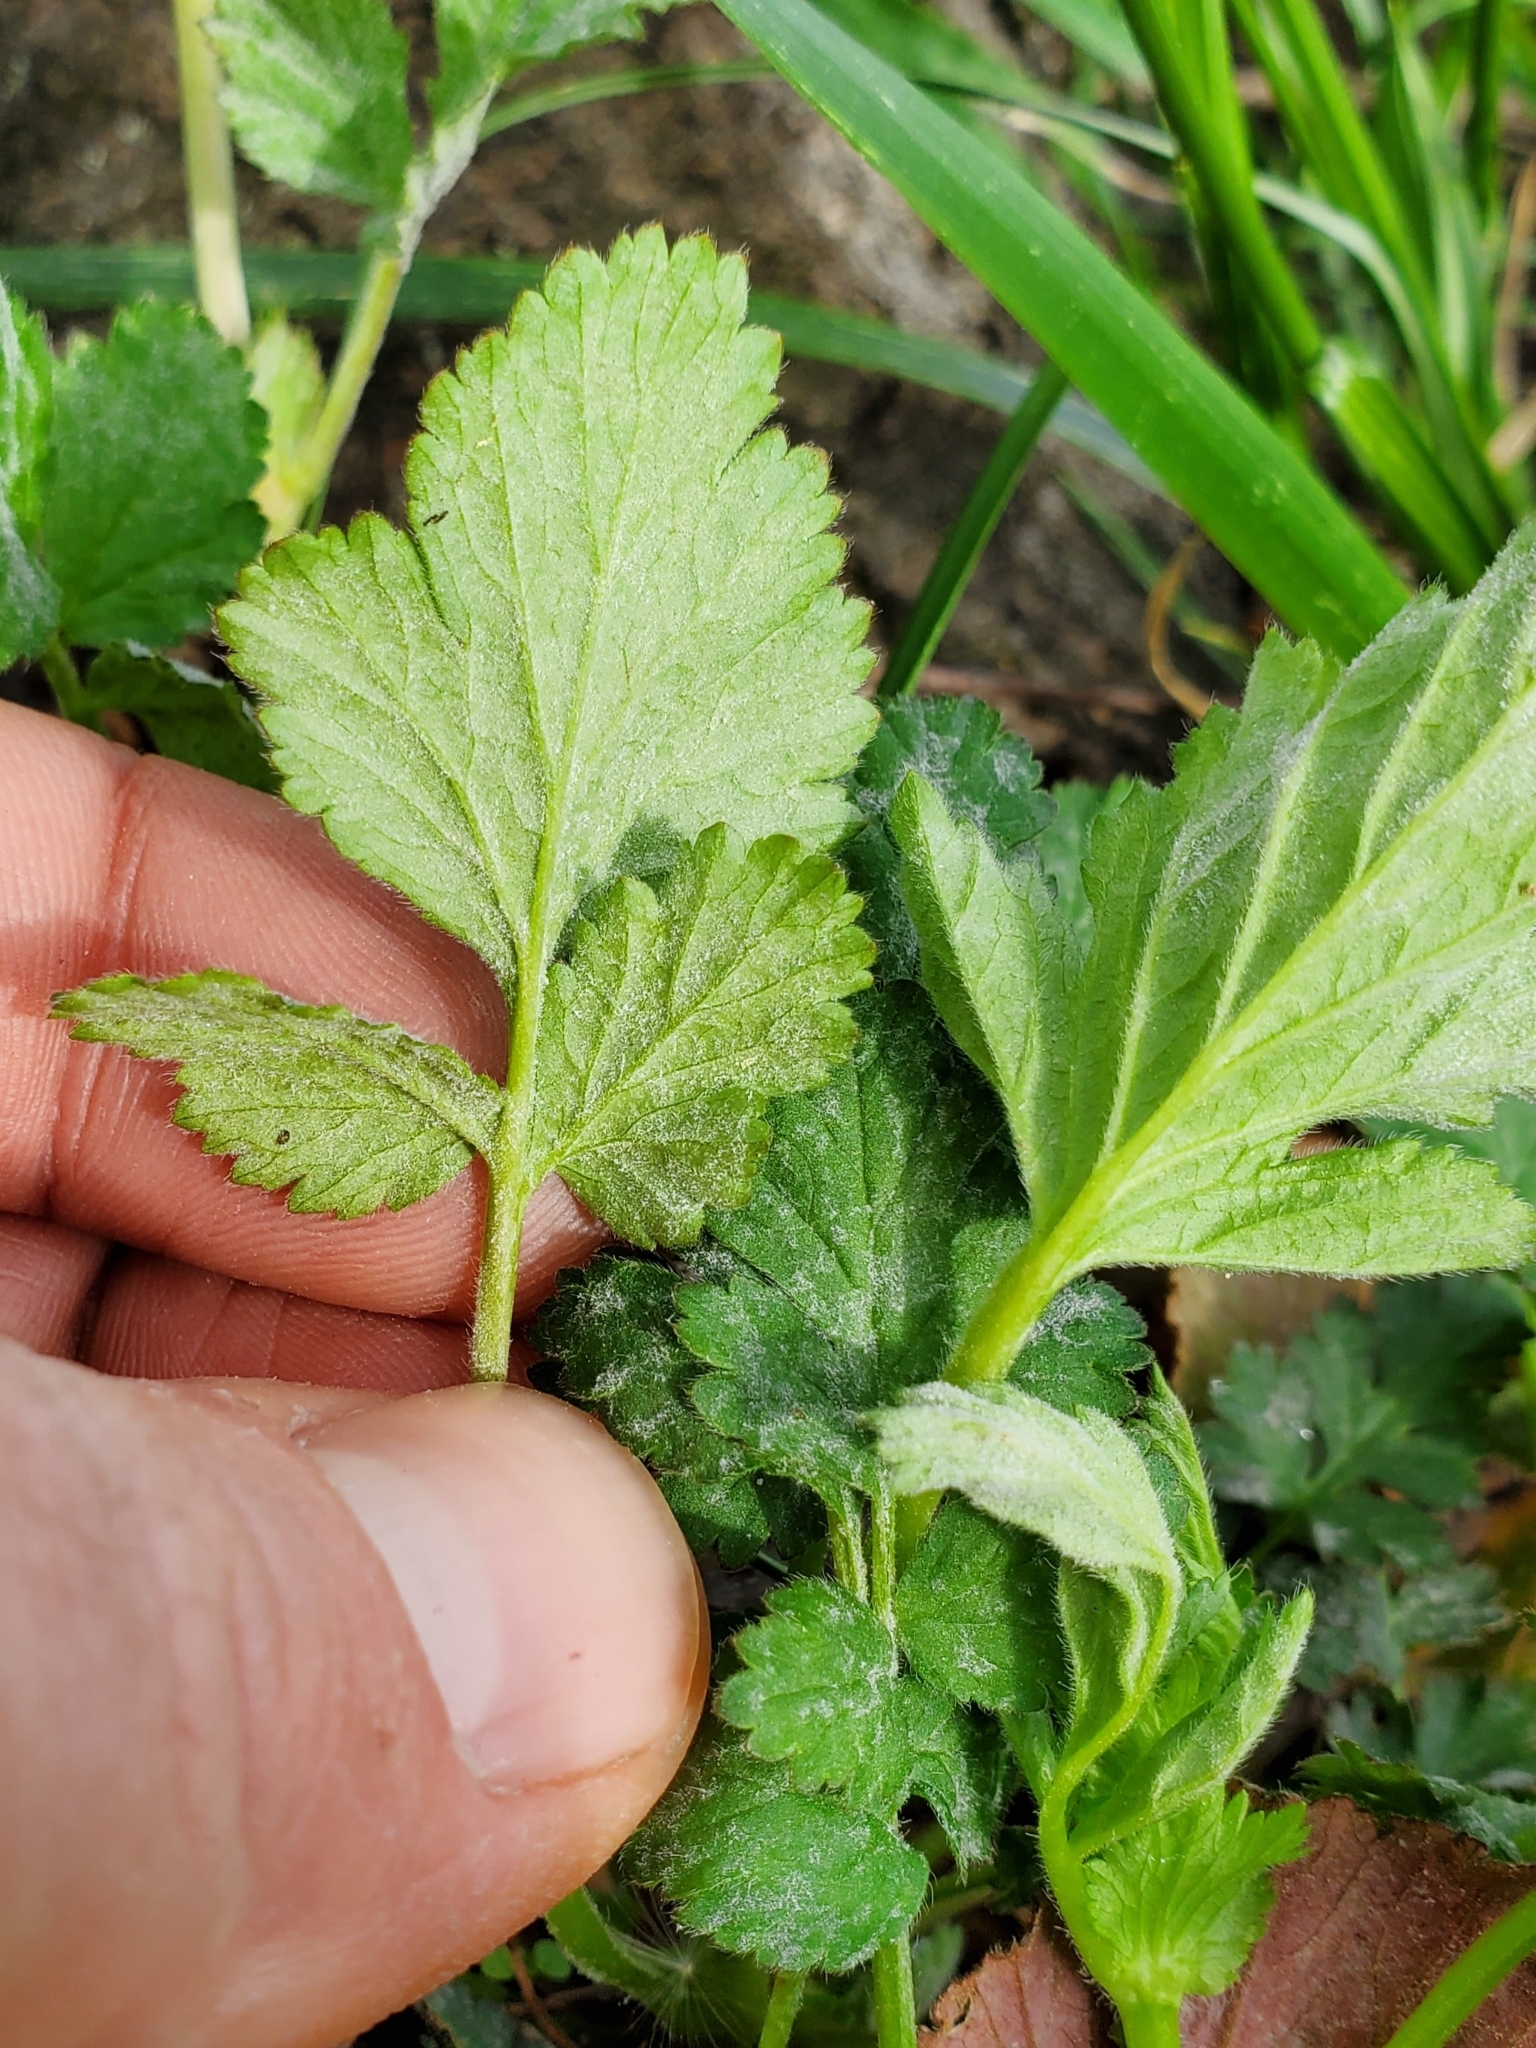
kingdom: Plantae
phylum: Tracheophyta
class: Magnoliopsida
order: Rosales
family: Rosaceae
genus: Geum
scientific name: Geum vernum
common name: Spring avens
